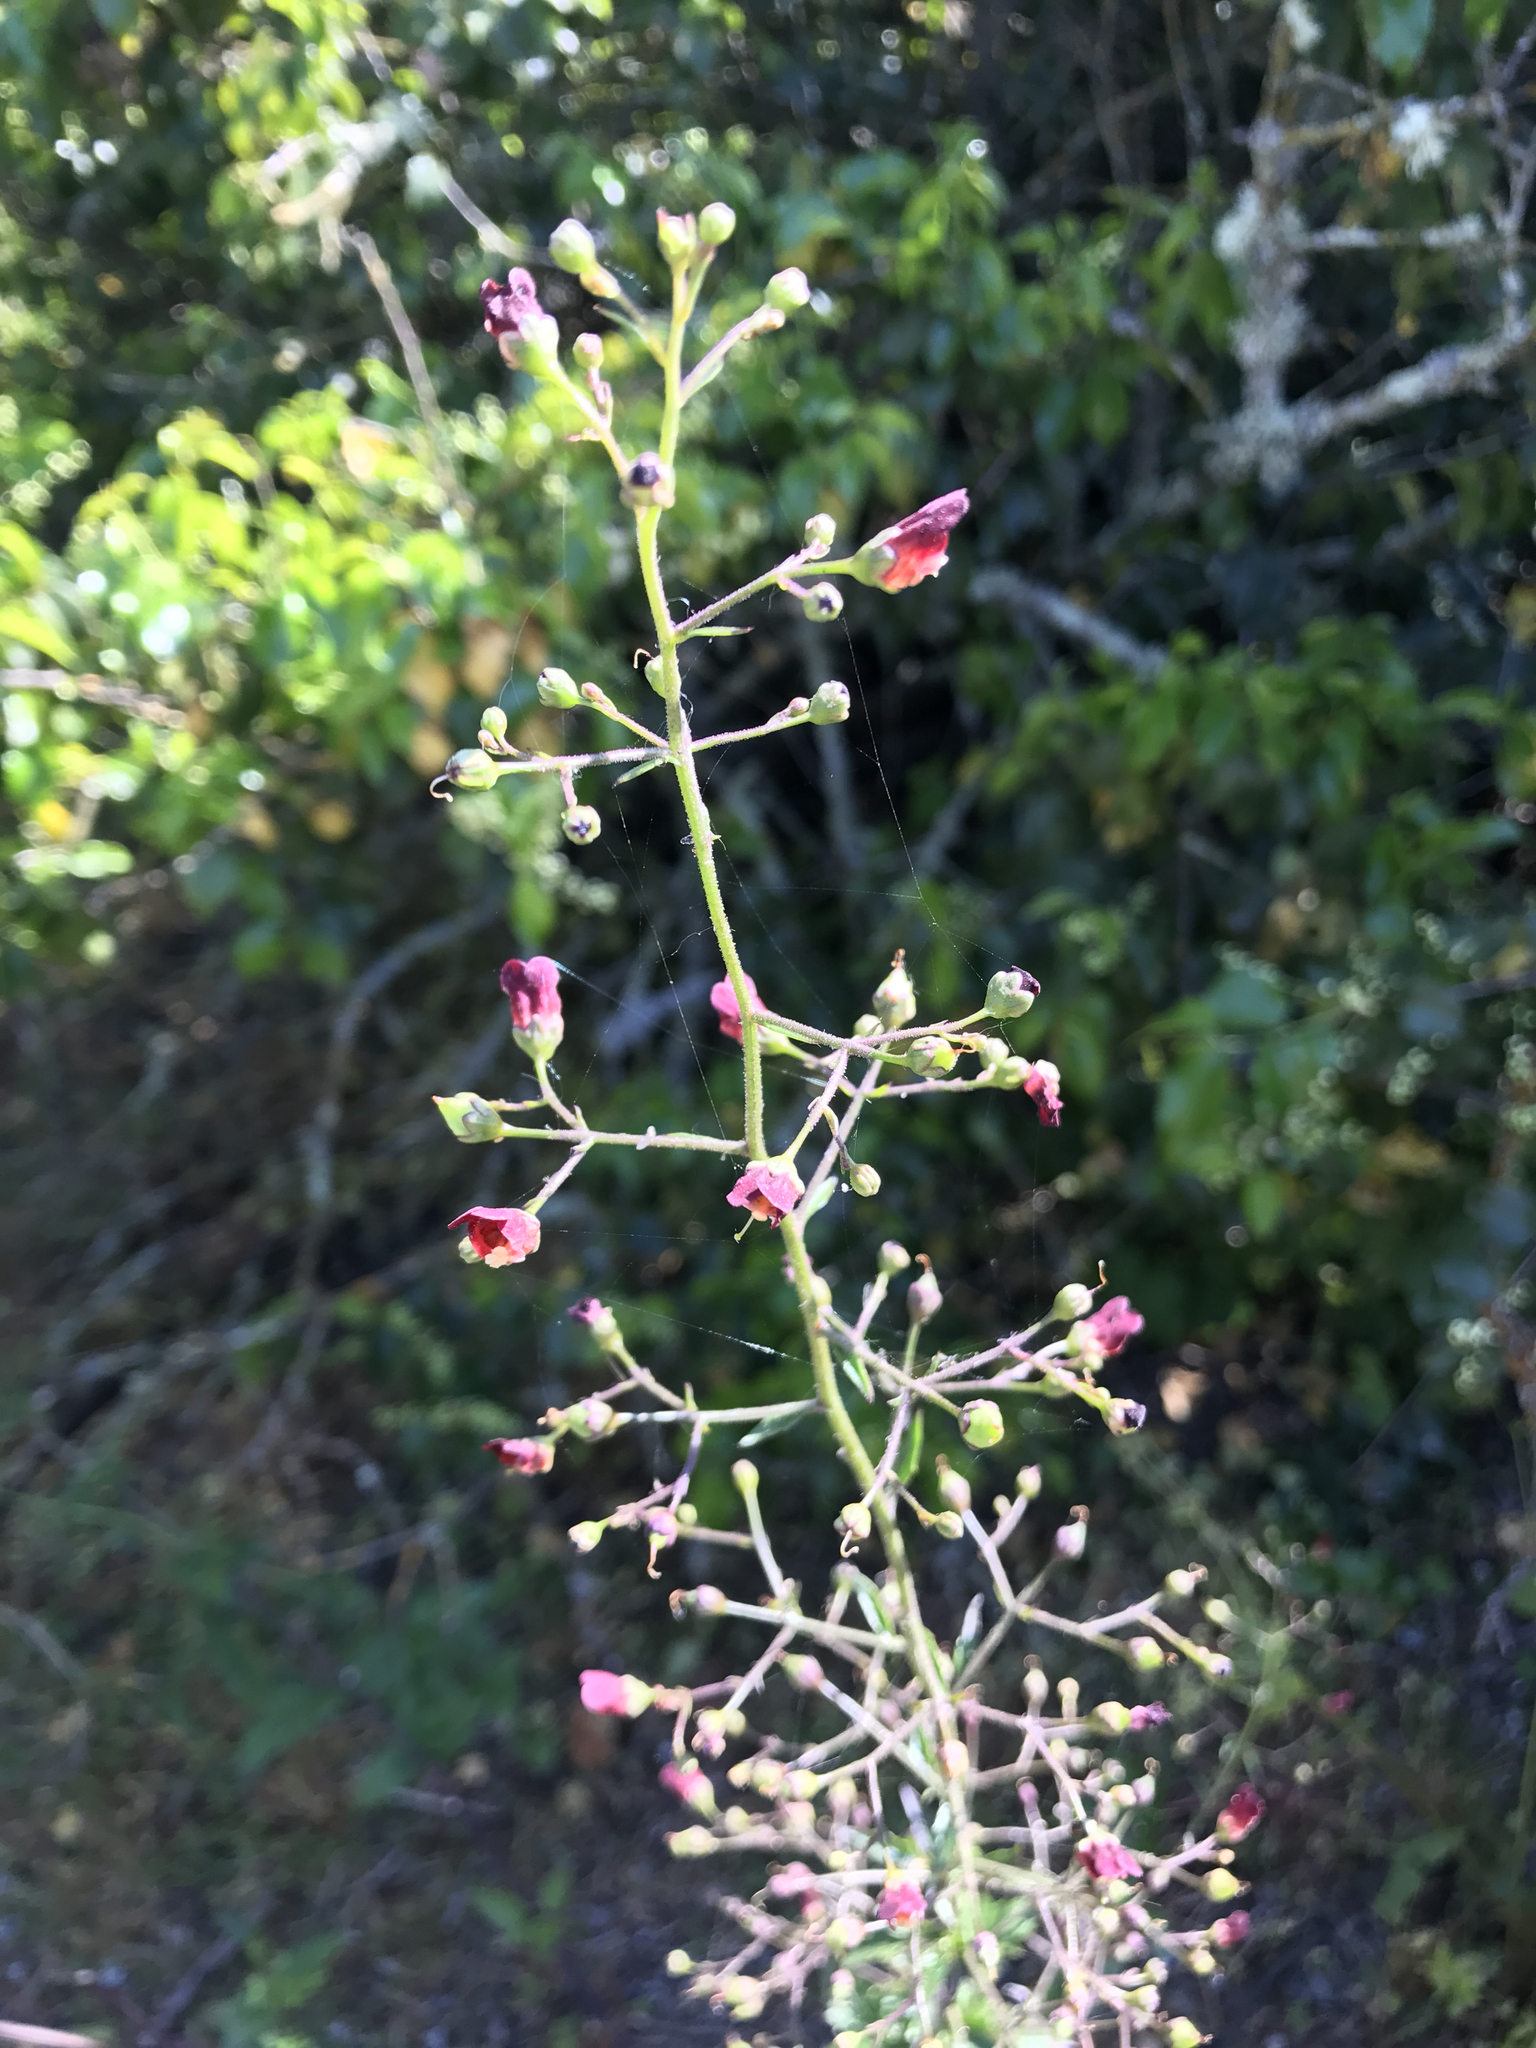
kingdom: Plantae
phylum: Tracheophyta
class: Magnoliopsida
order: Lamiales
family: Scrophulariaceae
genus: Scrophularia
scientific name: Scrophularia californica
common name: California figwort
